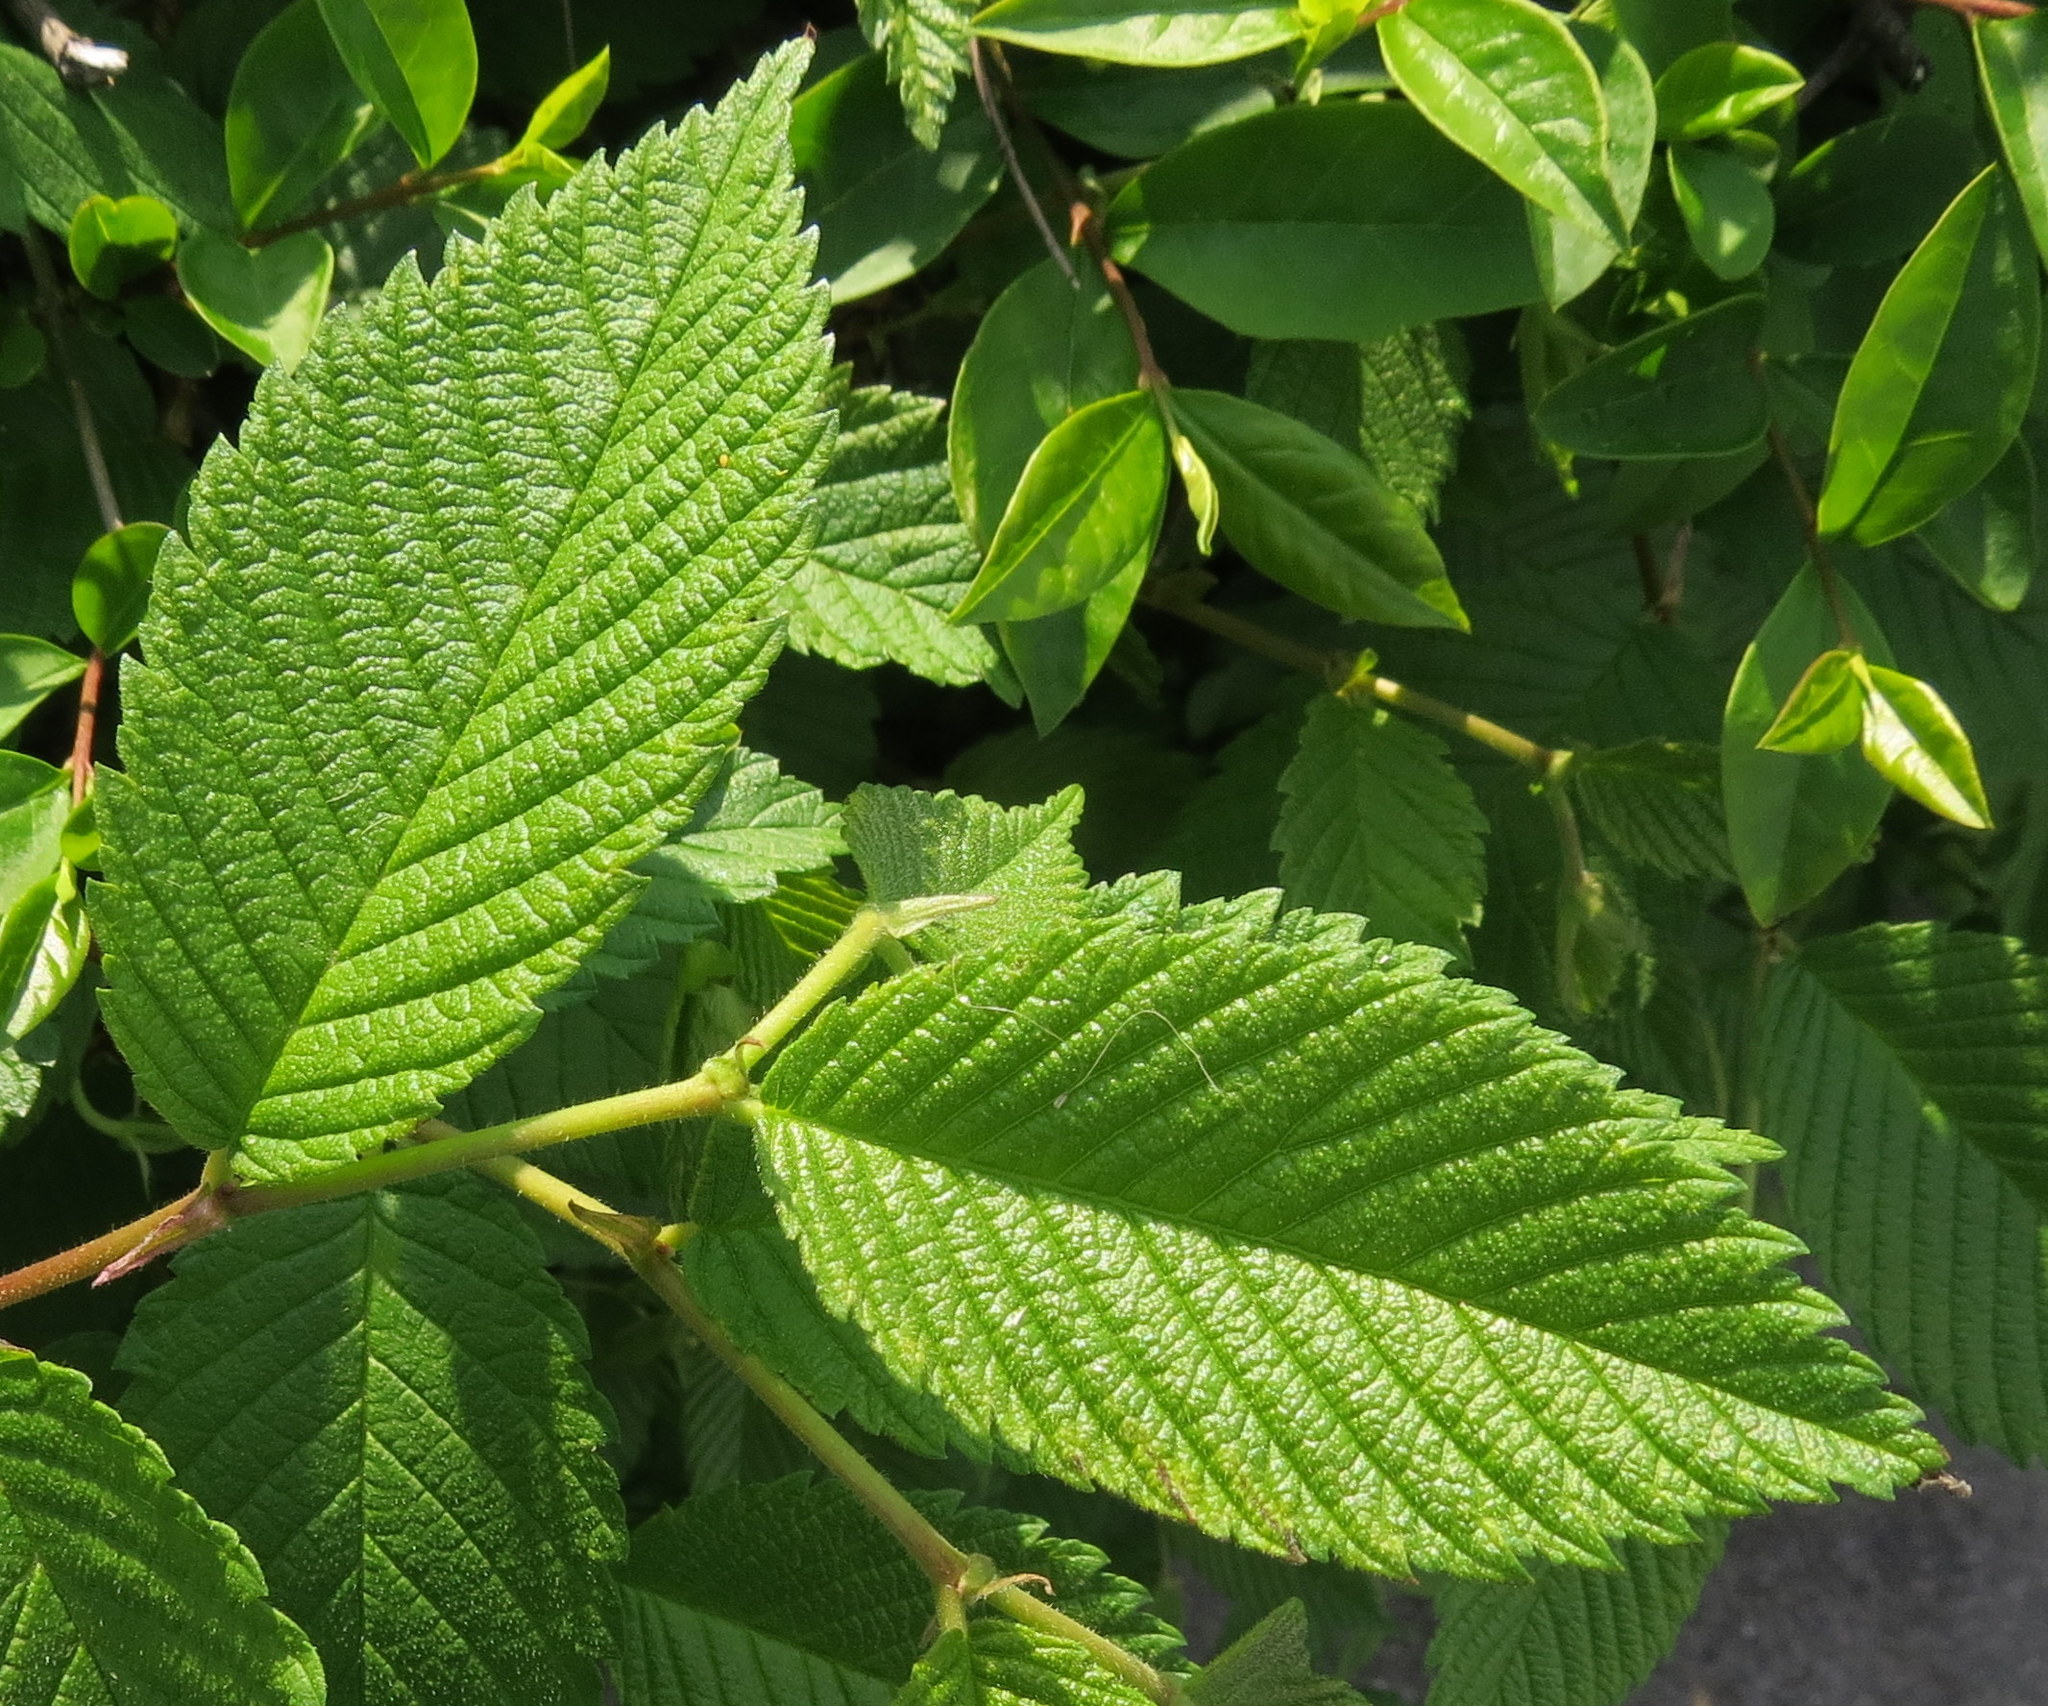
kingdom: Plantae
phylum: Tracheophyta
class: Magnoliopsida
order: Rosales
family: Ulmaceae
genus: Ulmus
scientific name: Ulmus americana
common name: American elm
